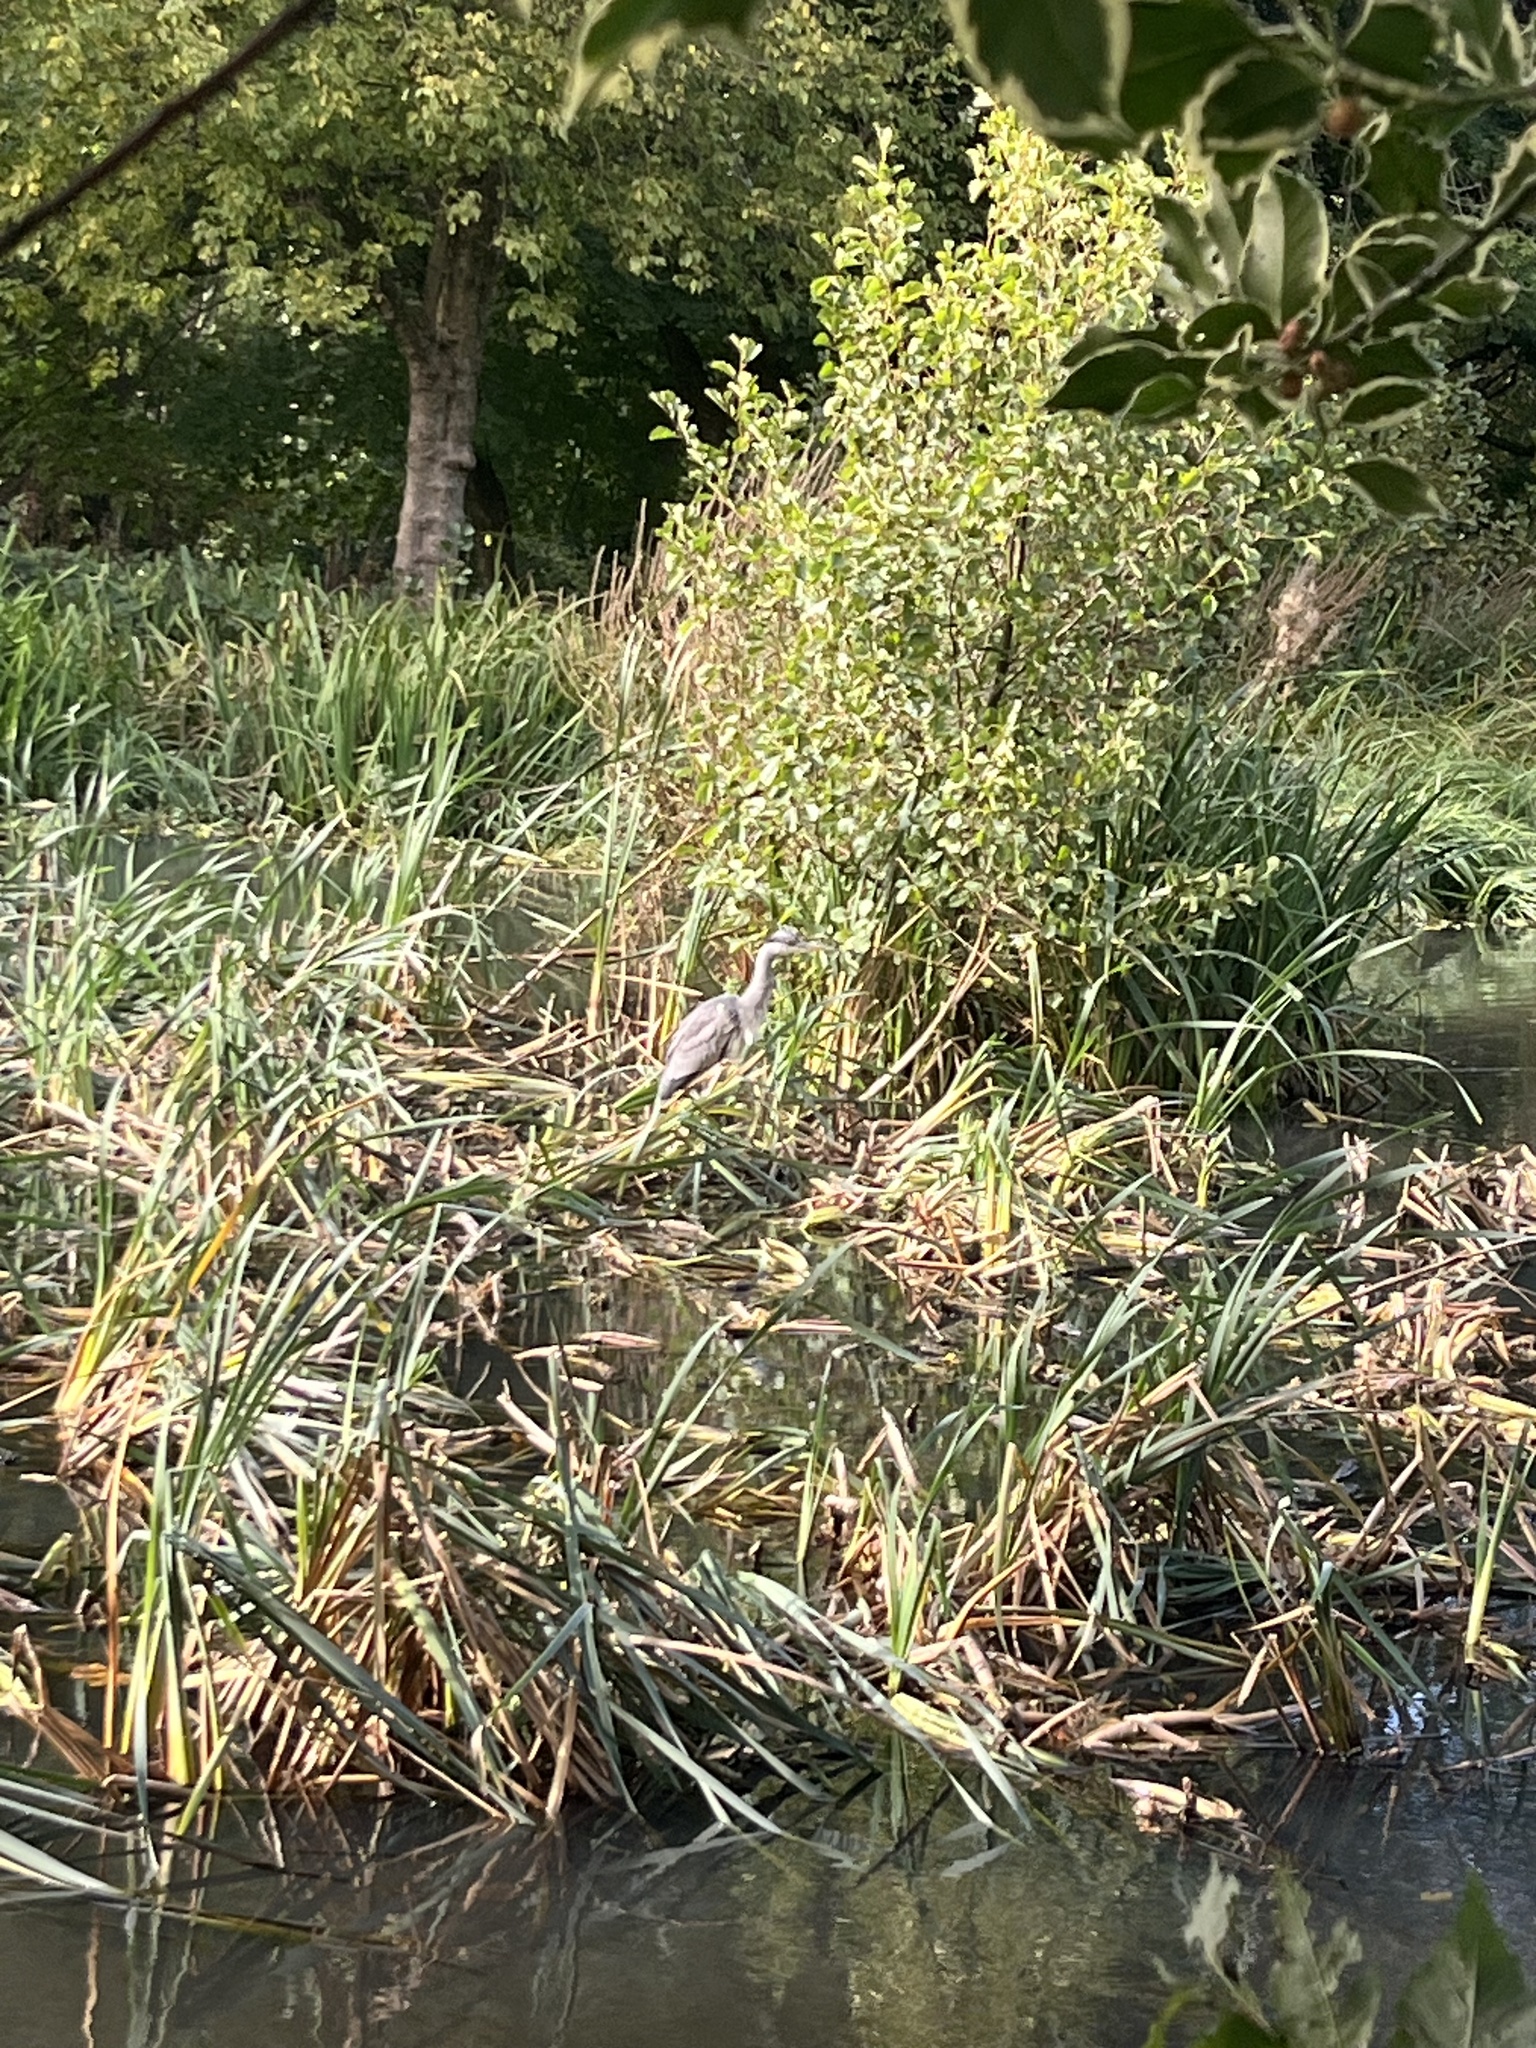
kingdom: Animalia
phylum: Chordata
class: Aves
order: Pelecaniformes
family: Ardeidae
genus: Ardea
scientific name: Ardea cinerea
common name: Grey heron
